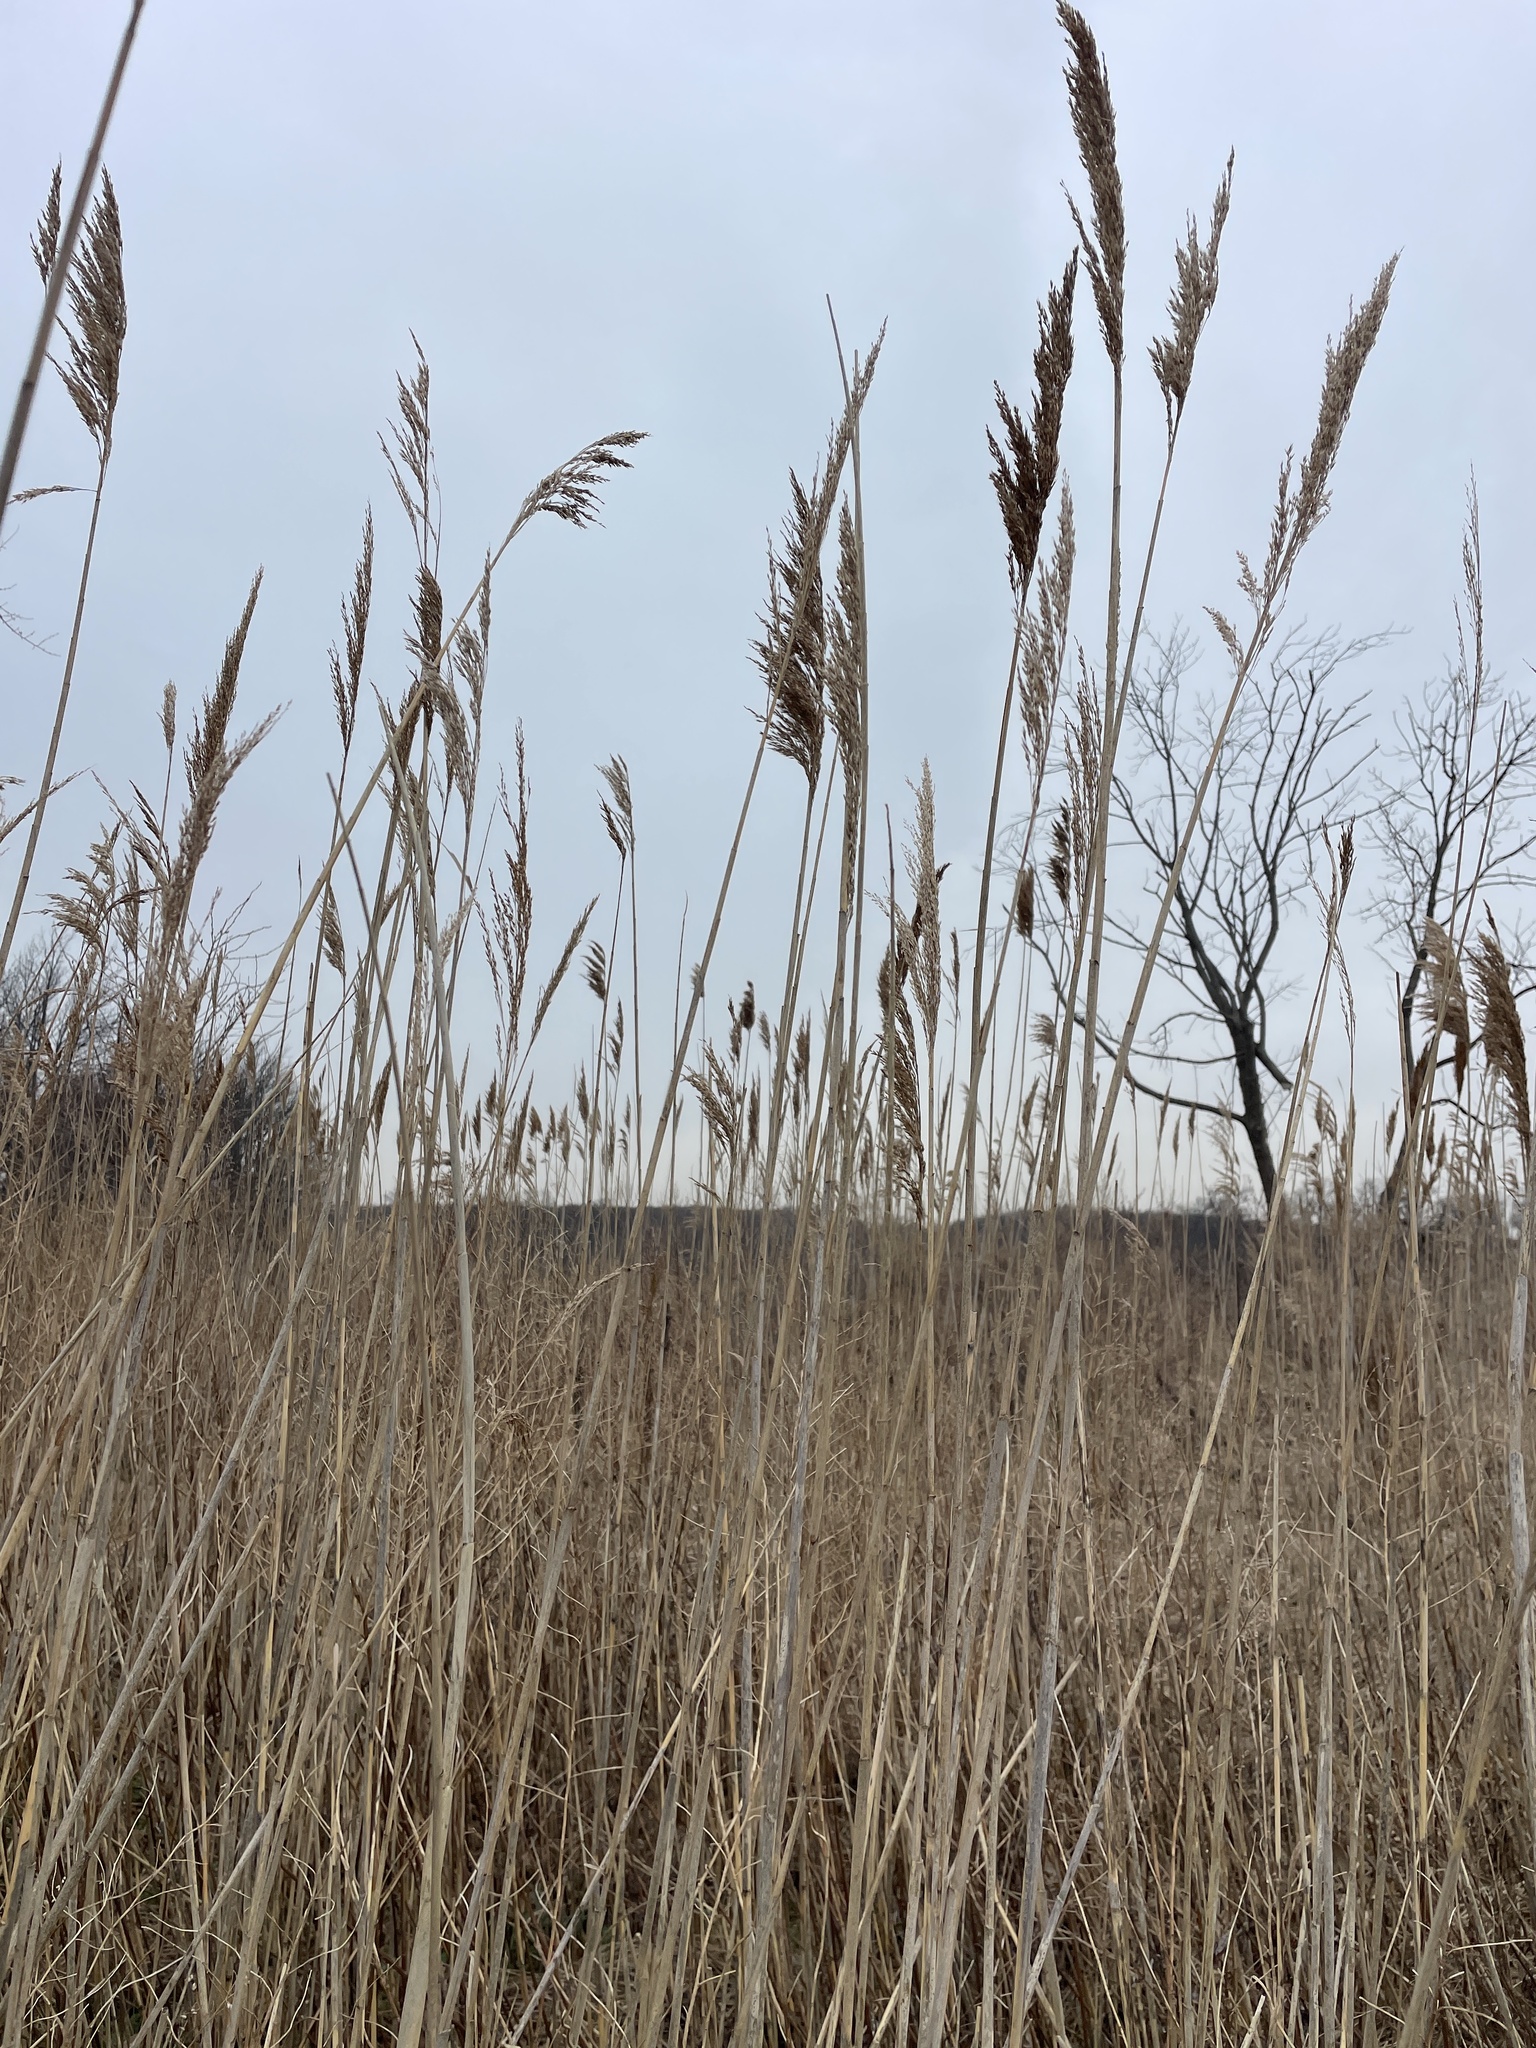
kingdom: Plantae
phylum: Tracheophyta
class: Liliopsida
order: Poales
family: Poaceae
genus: Phragmites
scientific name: Phragmites australis
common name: Common reed
